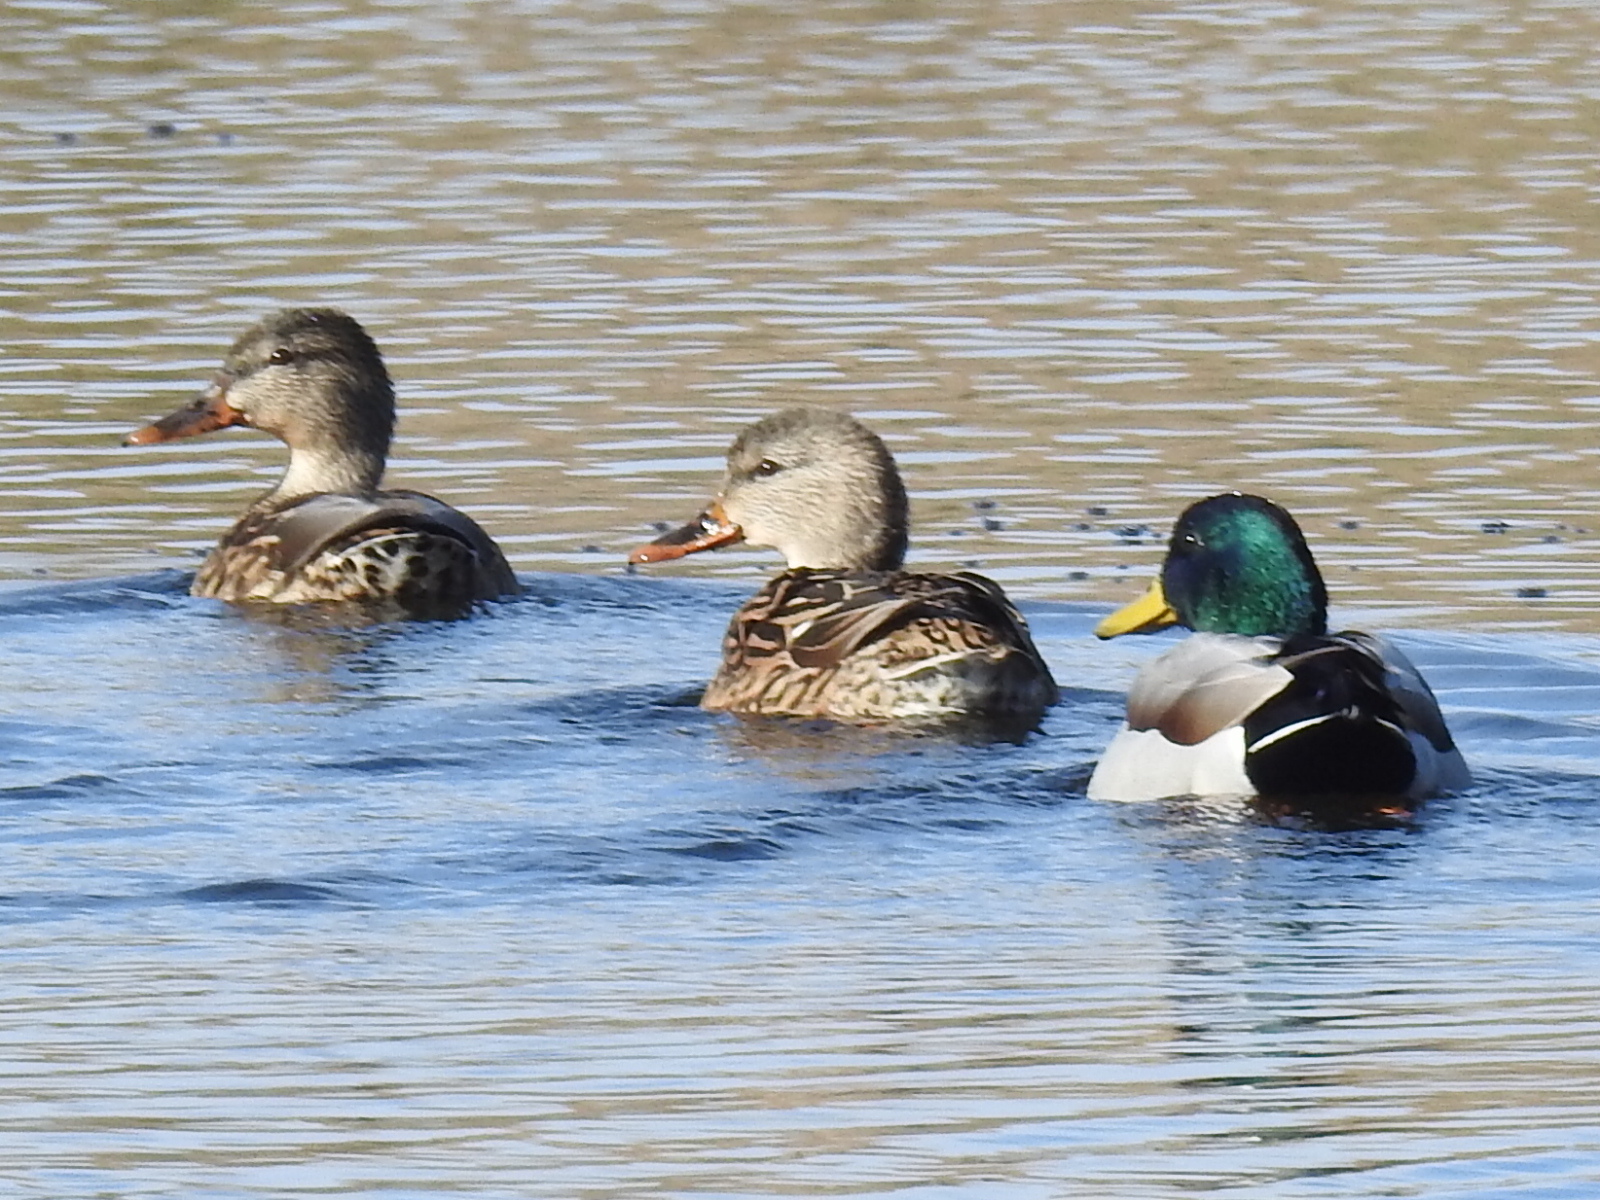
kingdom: Animalia
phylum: Chordata
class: Aves
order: Anseriformes
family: Anatidae
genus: Anas
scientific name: Anas platyrhynchos
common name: Mallard
